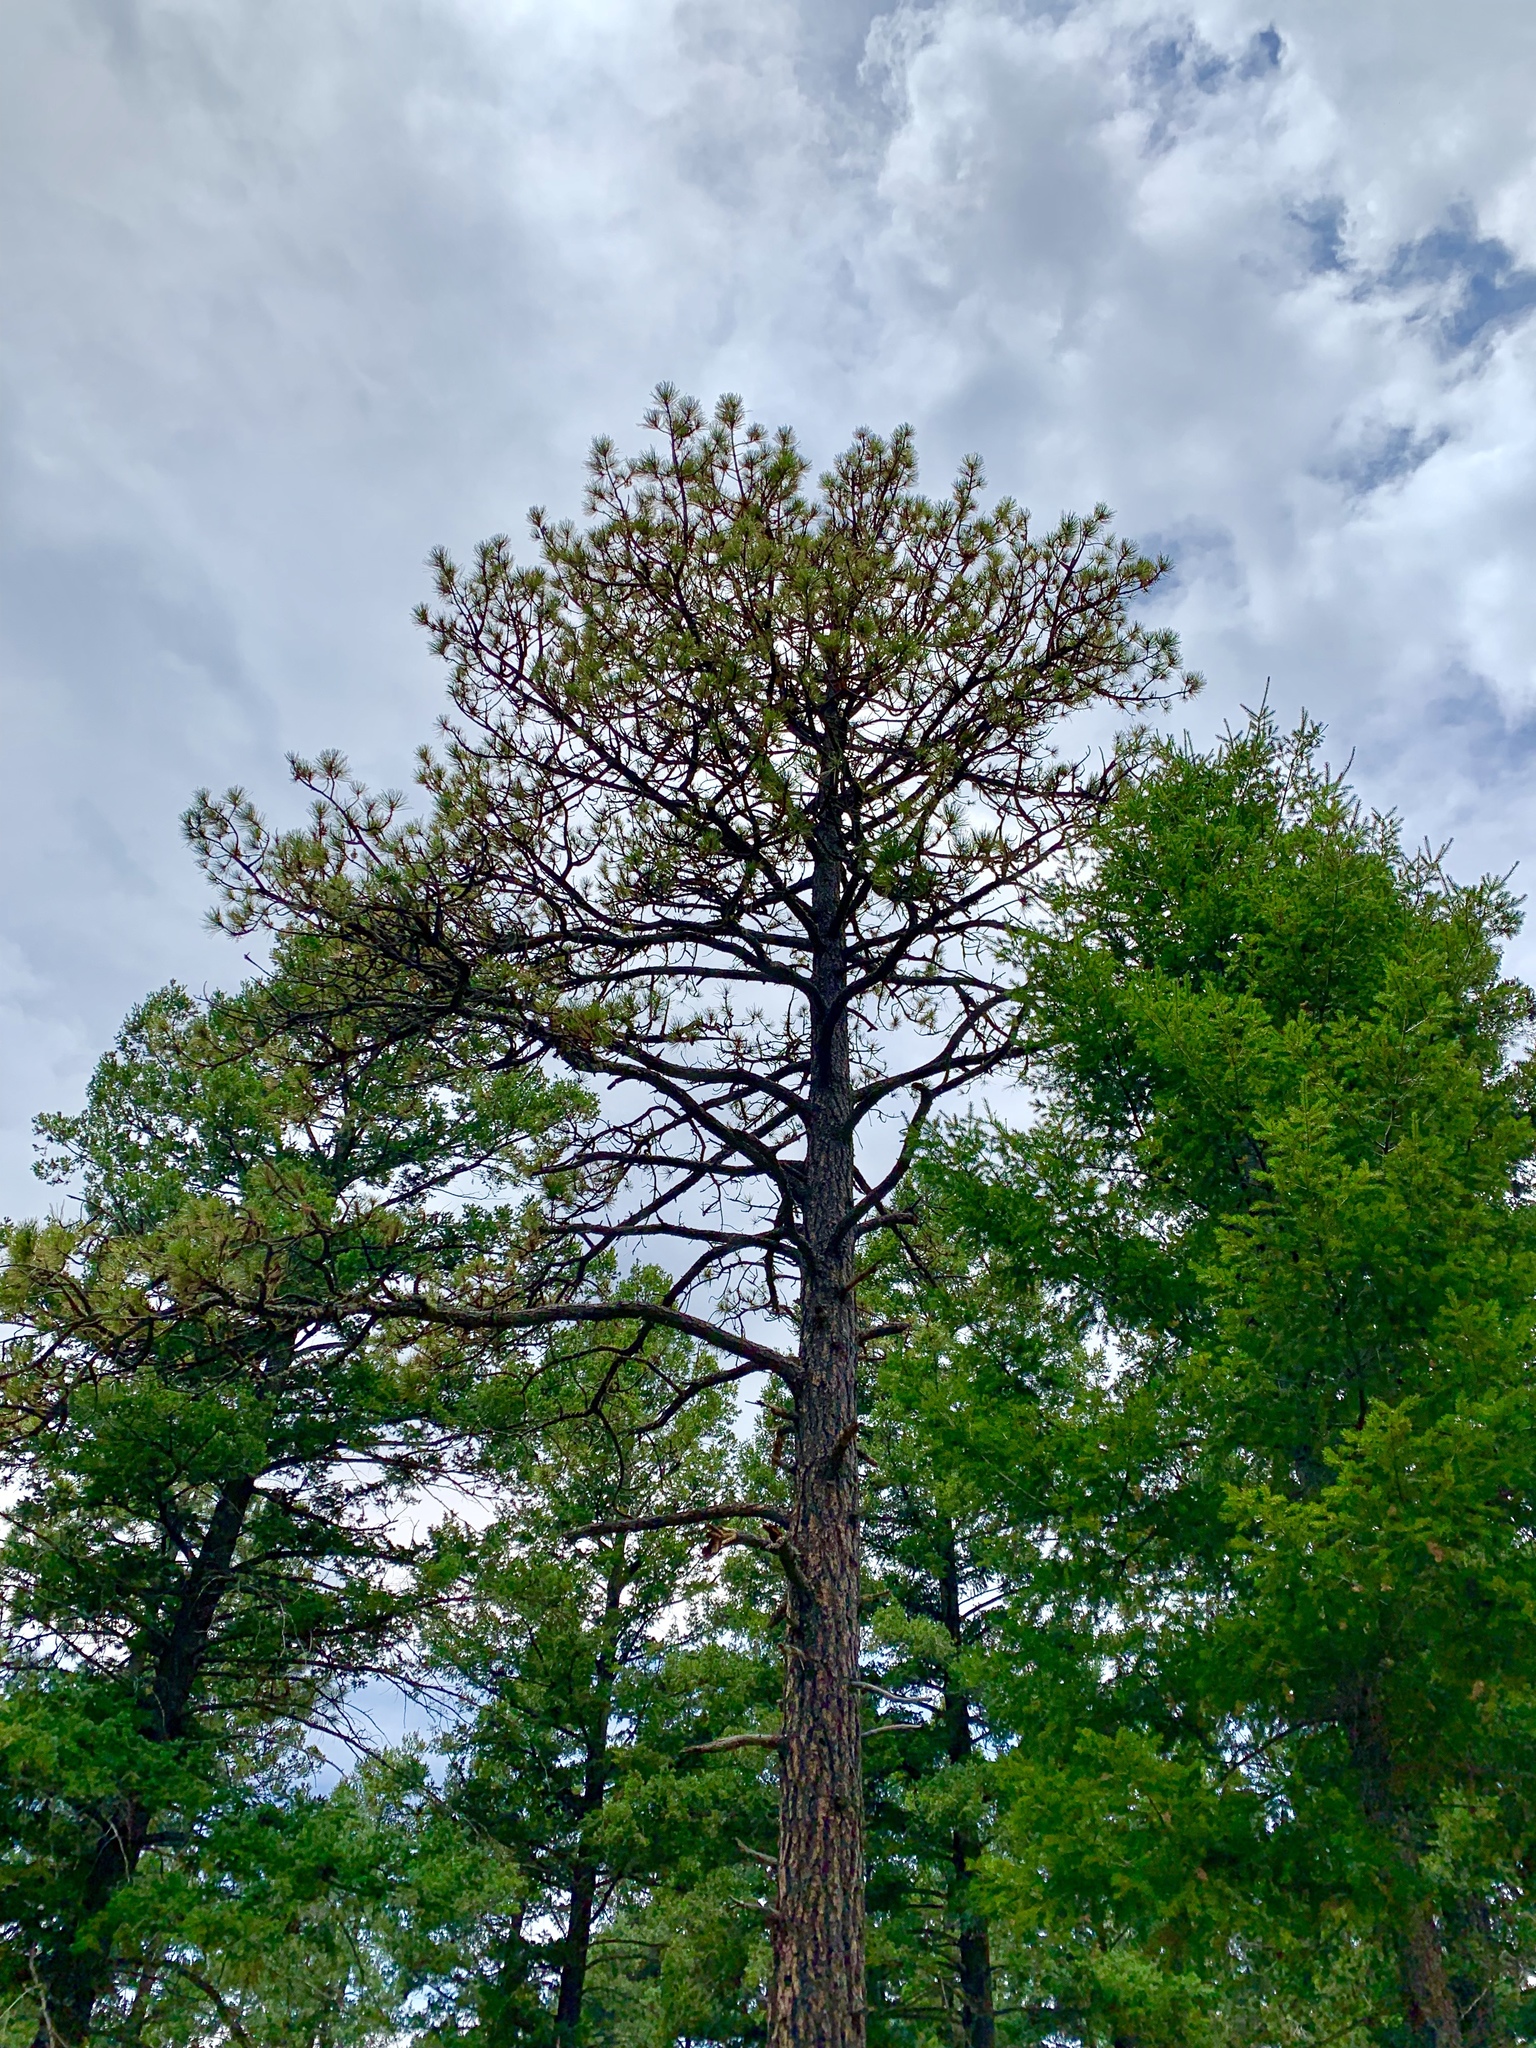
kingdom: Plantae
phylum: Tracheophyta
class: Pinopsida
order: Pinales
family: Pinaceae
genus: Pinus
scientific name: Pinus ponderosa
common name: Western yellow-pine
